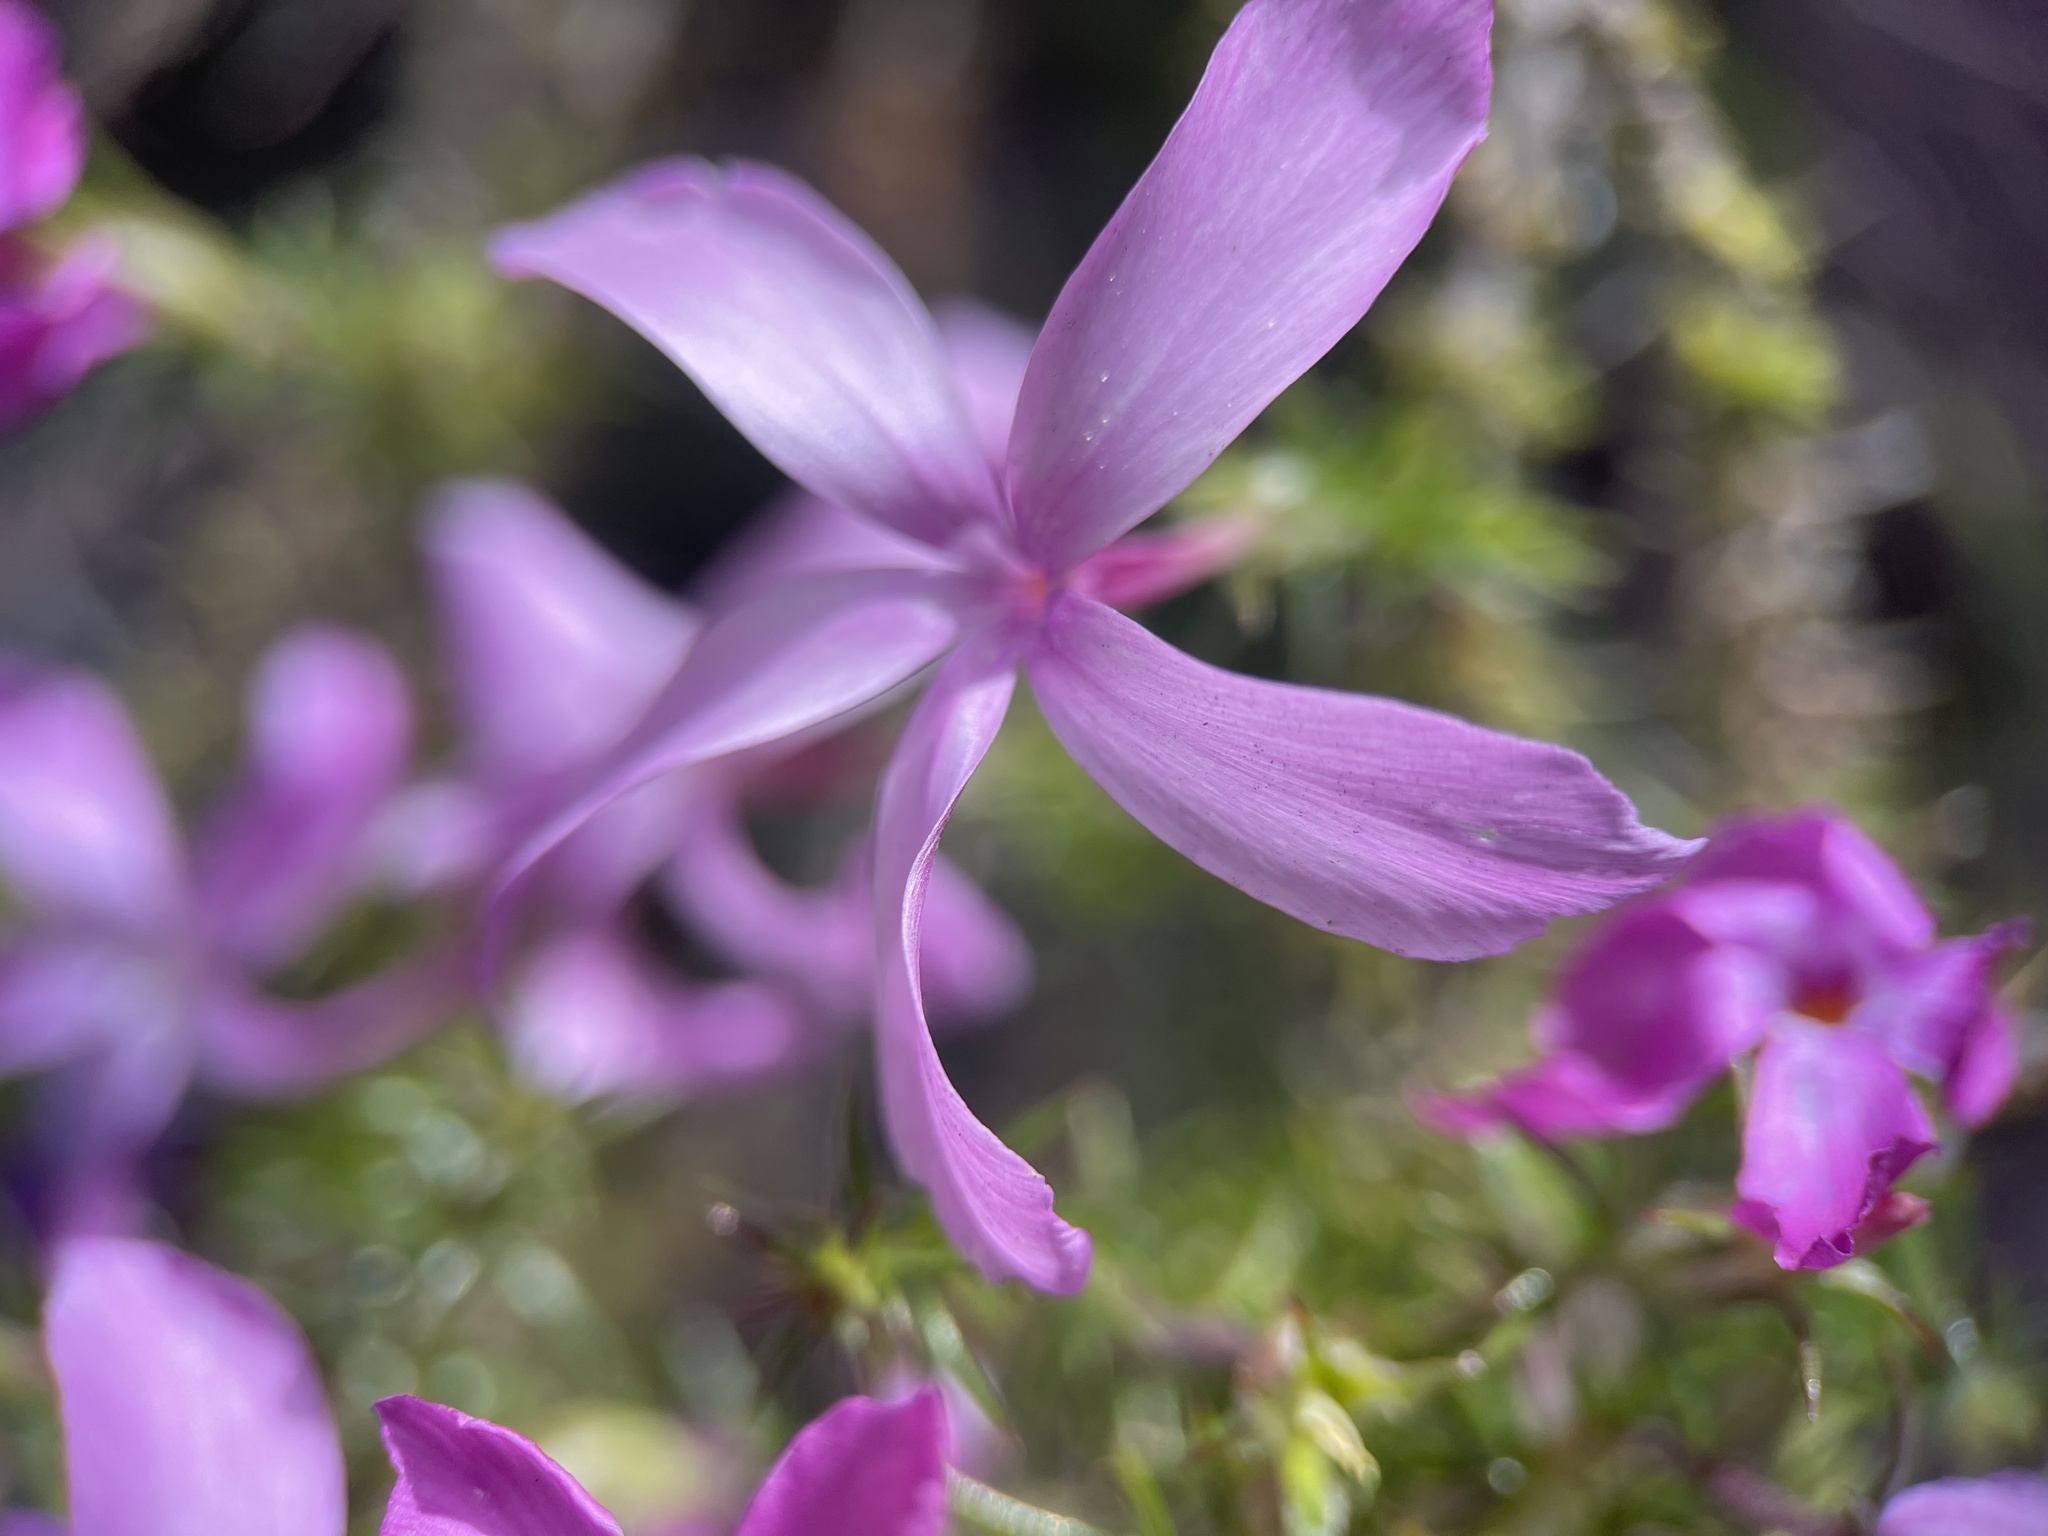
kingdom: Plantae
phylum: Tracheophyta
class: Magnoliopsida
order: Ericales
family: Polemoniaceae
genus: Linanthus
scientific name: Linanthus californicus
